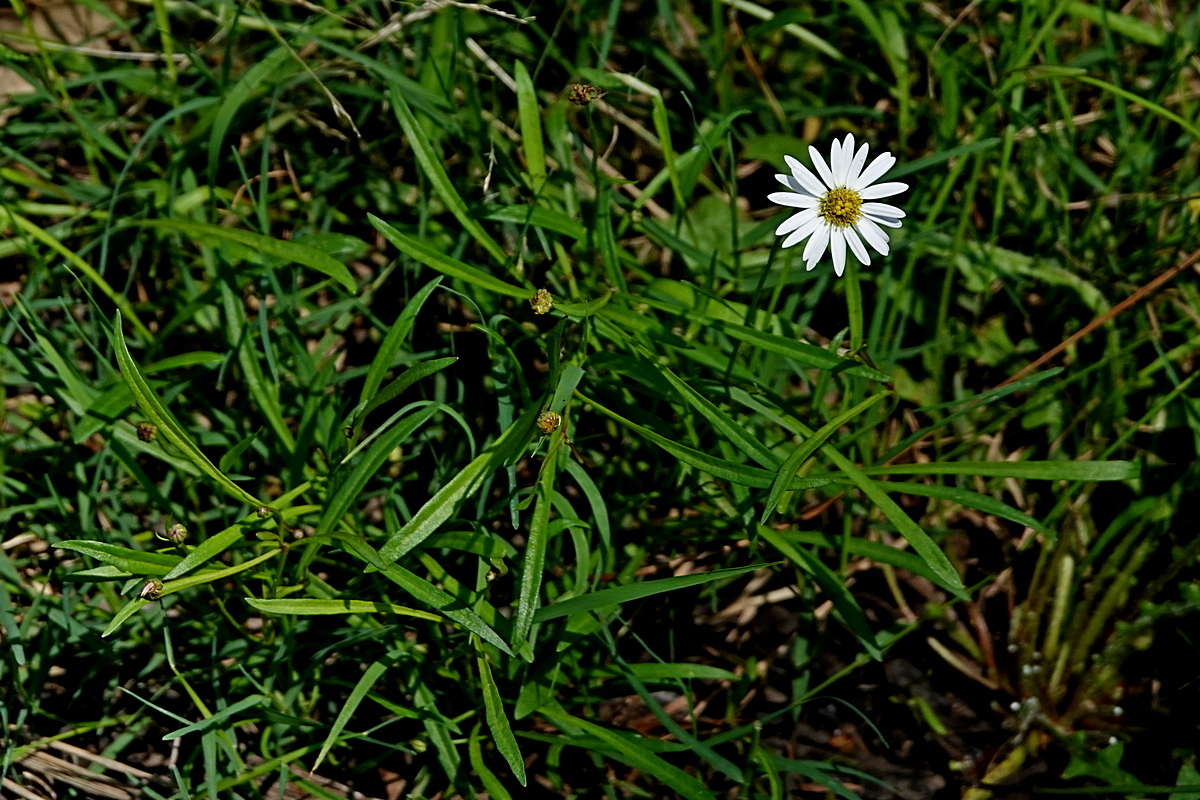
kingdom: Plantae
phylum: Tracheophyta
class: Magnoliopsida
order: Asterales
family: Asteraceae
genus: Brachyscome
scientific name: Brachyscome graminea
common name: Grass daisy
